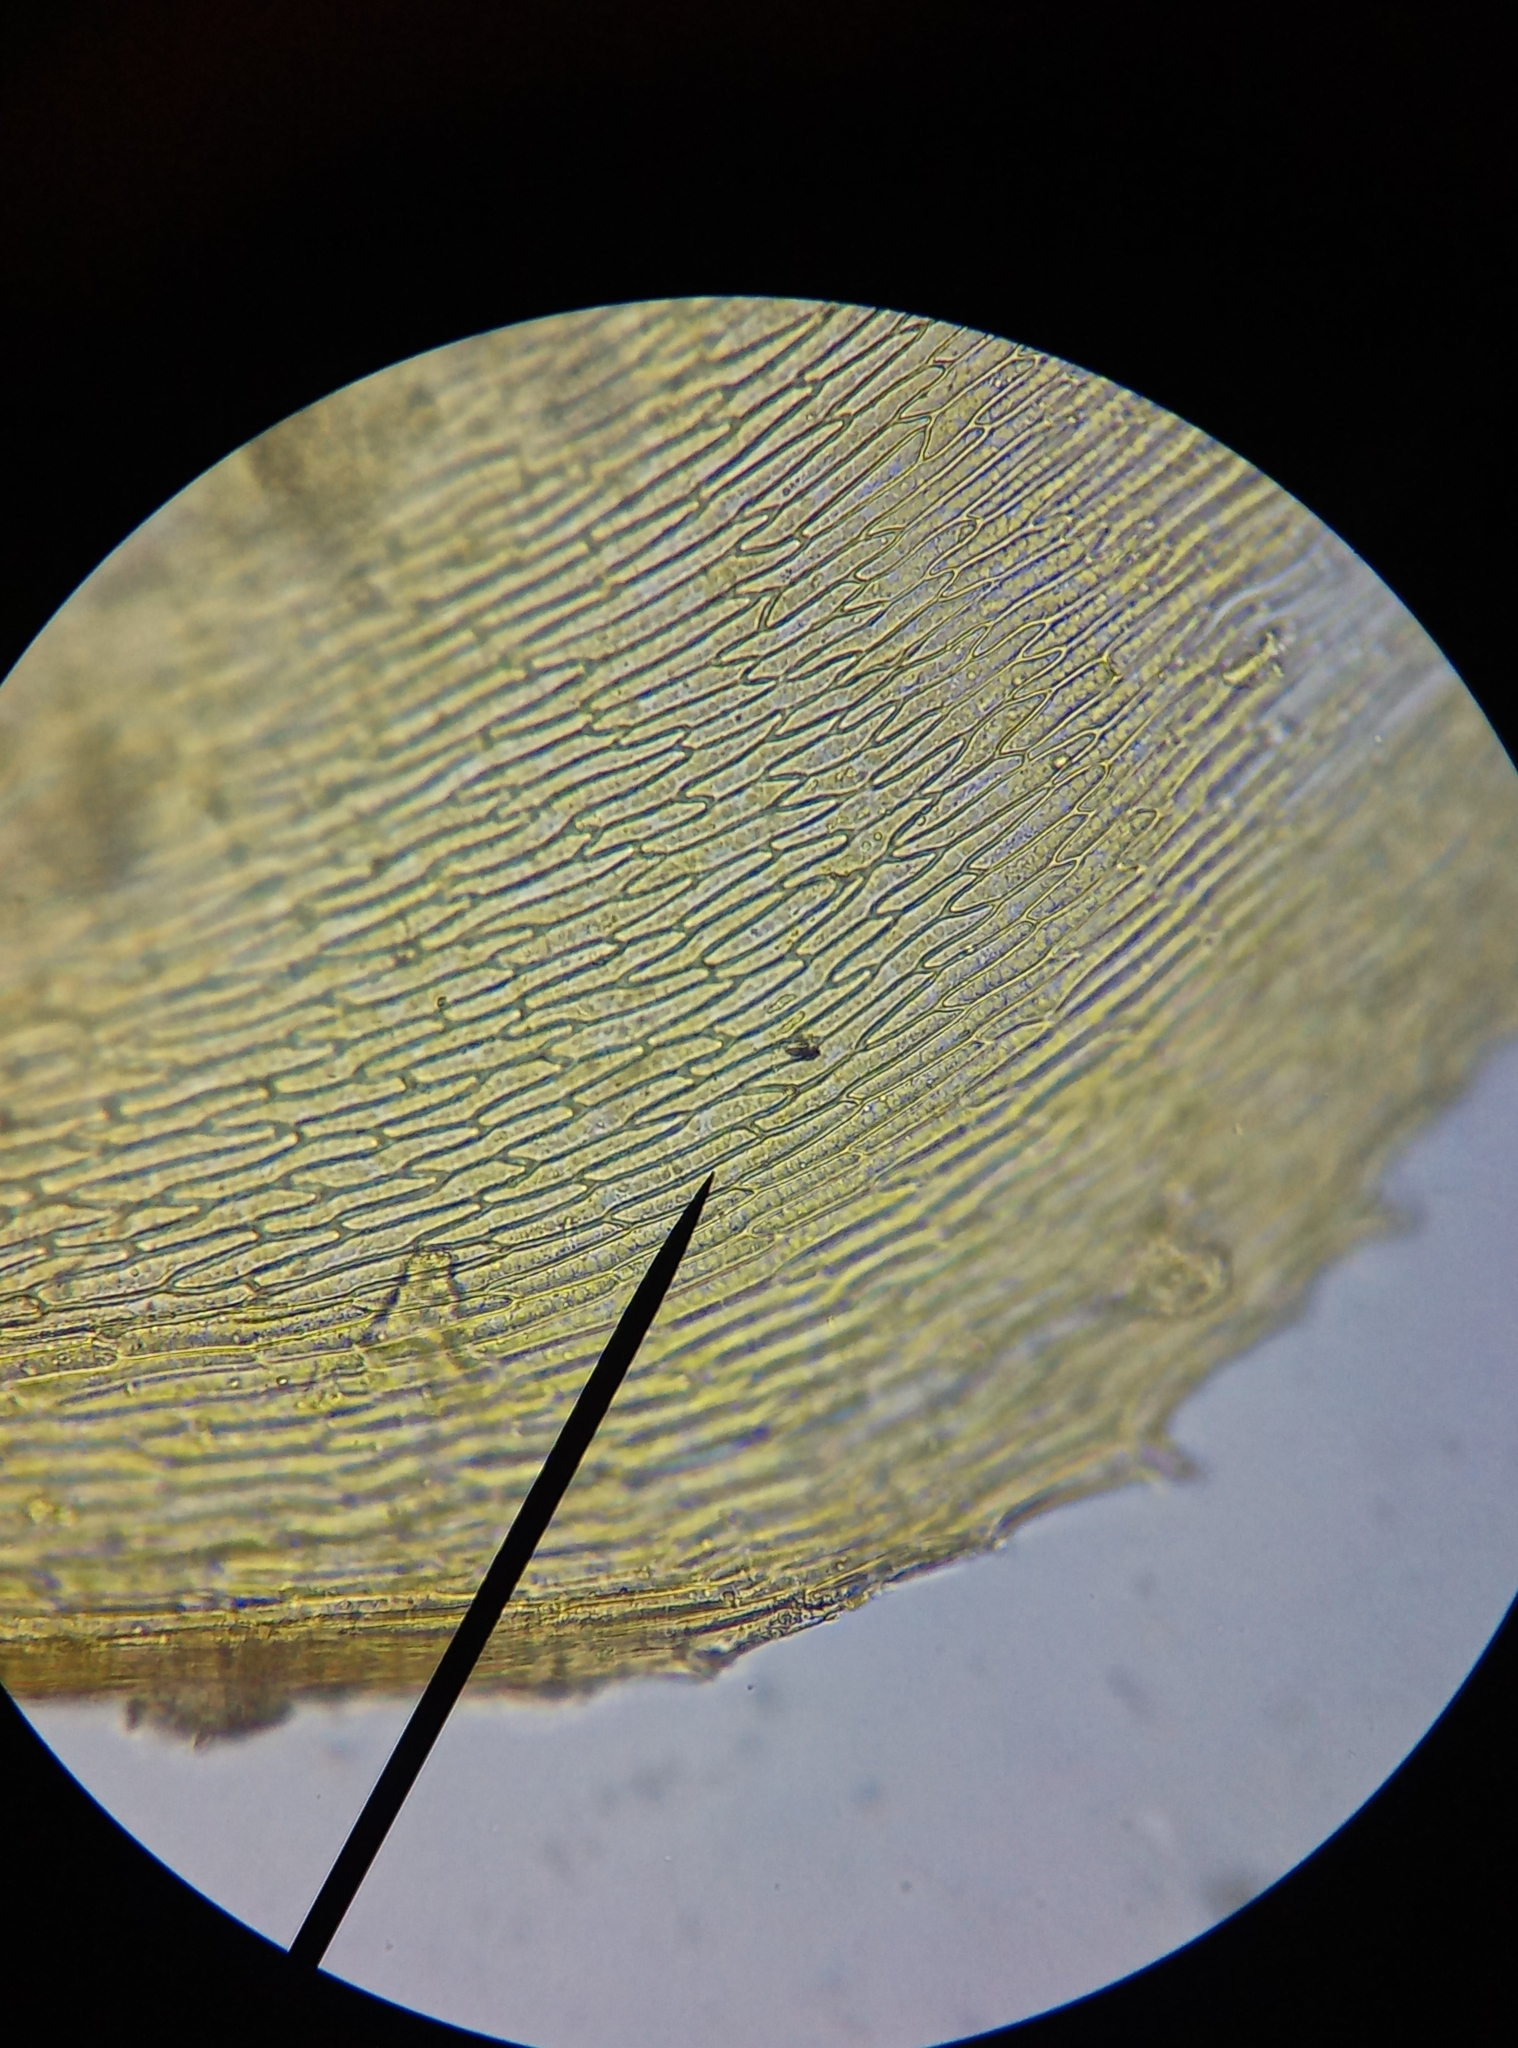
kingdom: Plantae
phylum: Bryophyta
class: Bryopsida
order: Hypnales
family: Brachytheciaceae
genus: Oxyrrhynchium
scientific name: Oxyrrhynchium hians
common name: Spreading beaked moss
